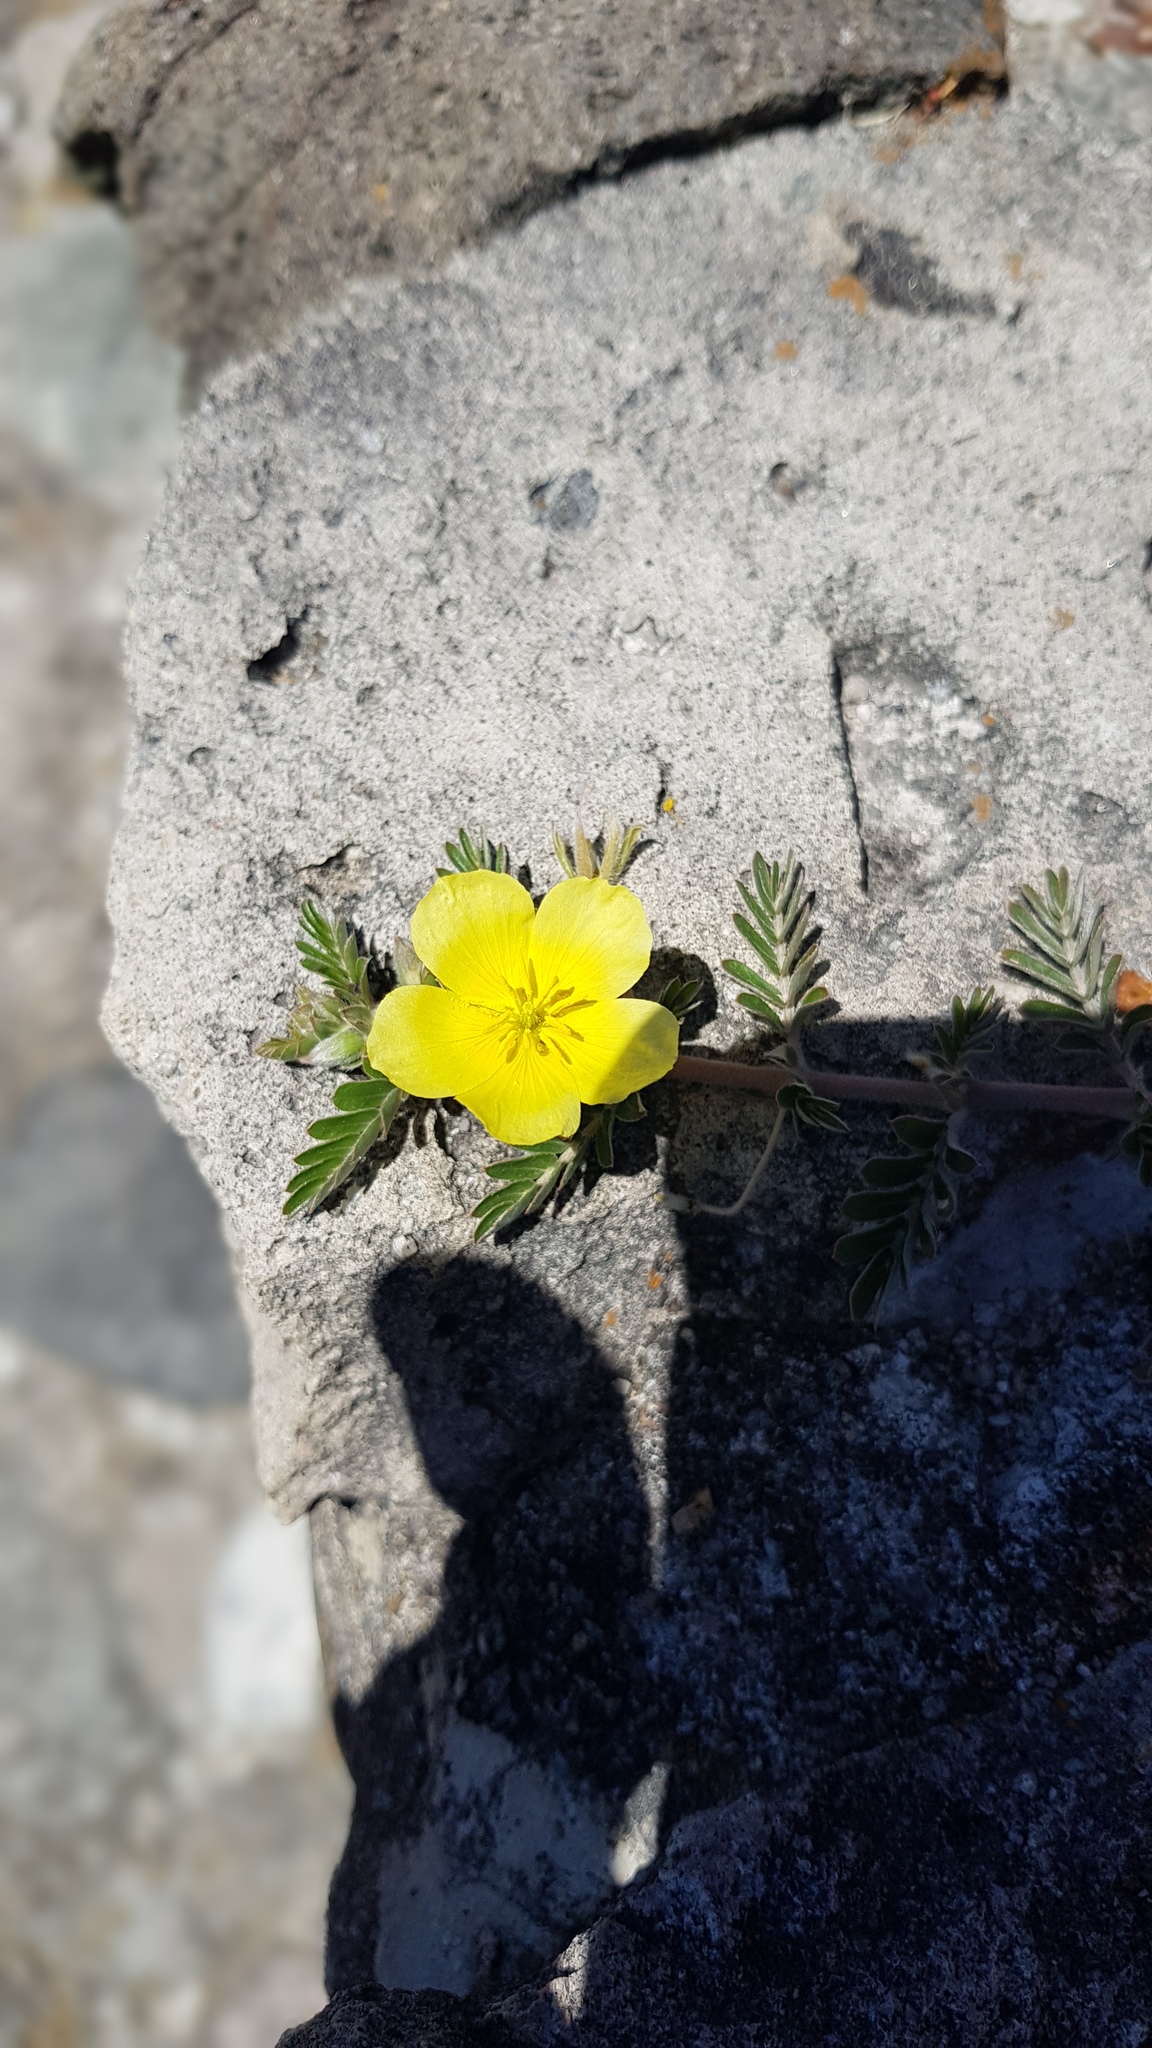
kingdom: Plantae
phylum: Tracheophyta
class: Magnoliopsida
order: Zygophyllales
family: Zygophyllaceae
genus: Tribulus
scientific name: Tribulus cistoides
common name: Jamaican feverplant
